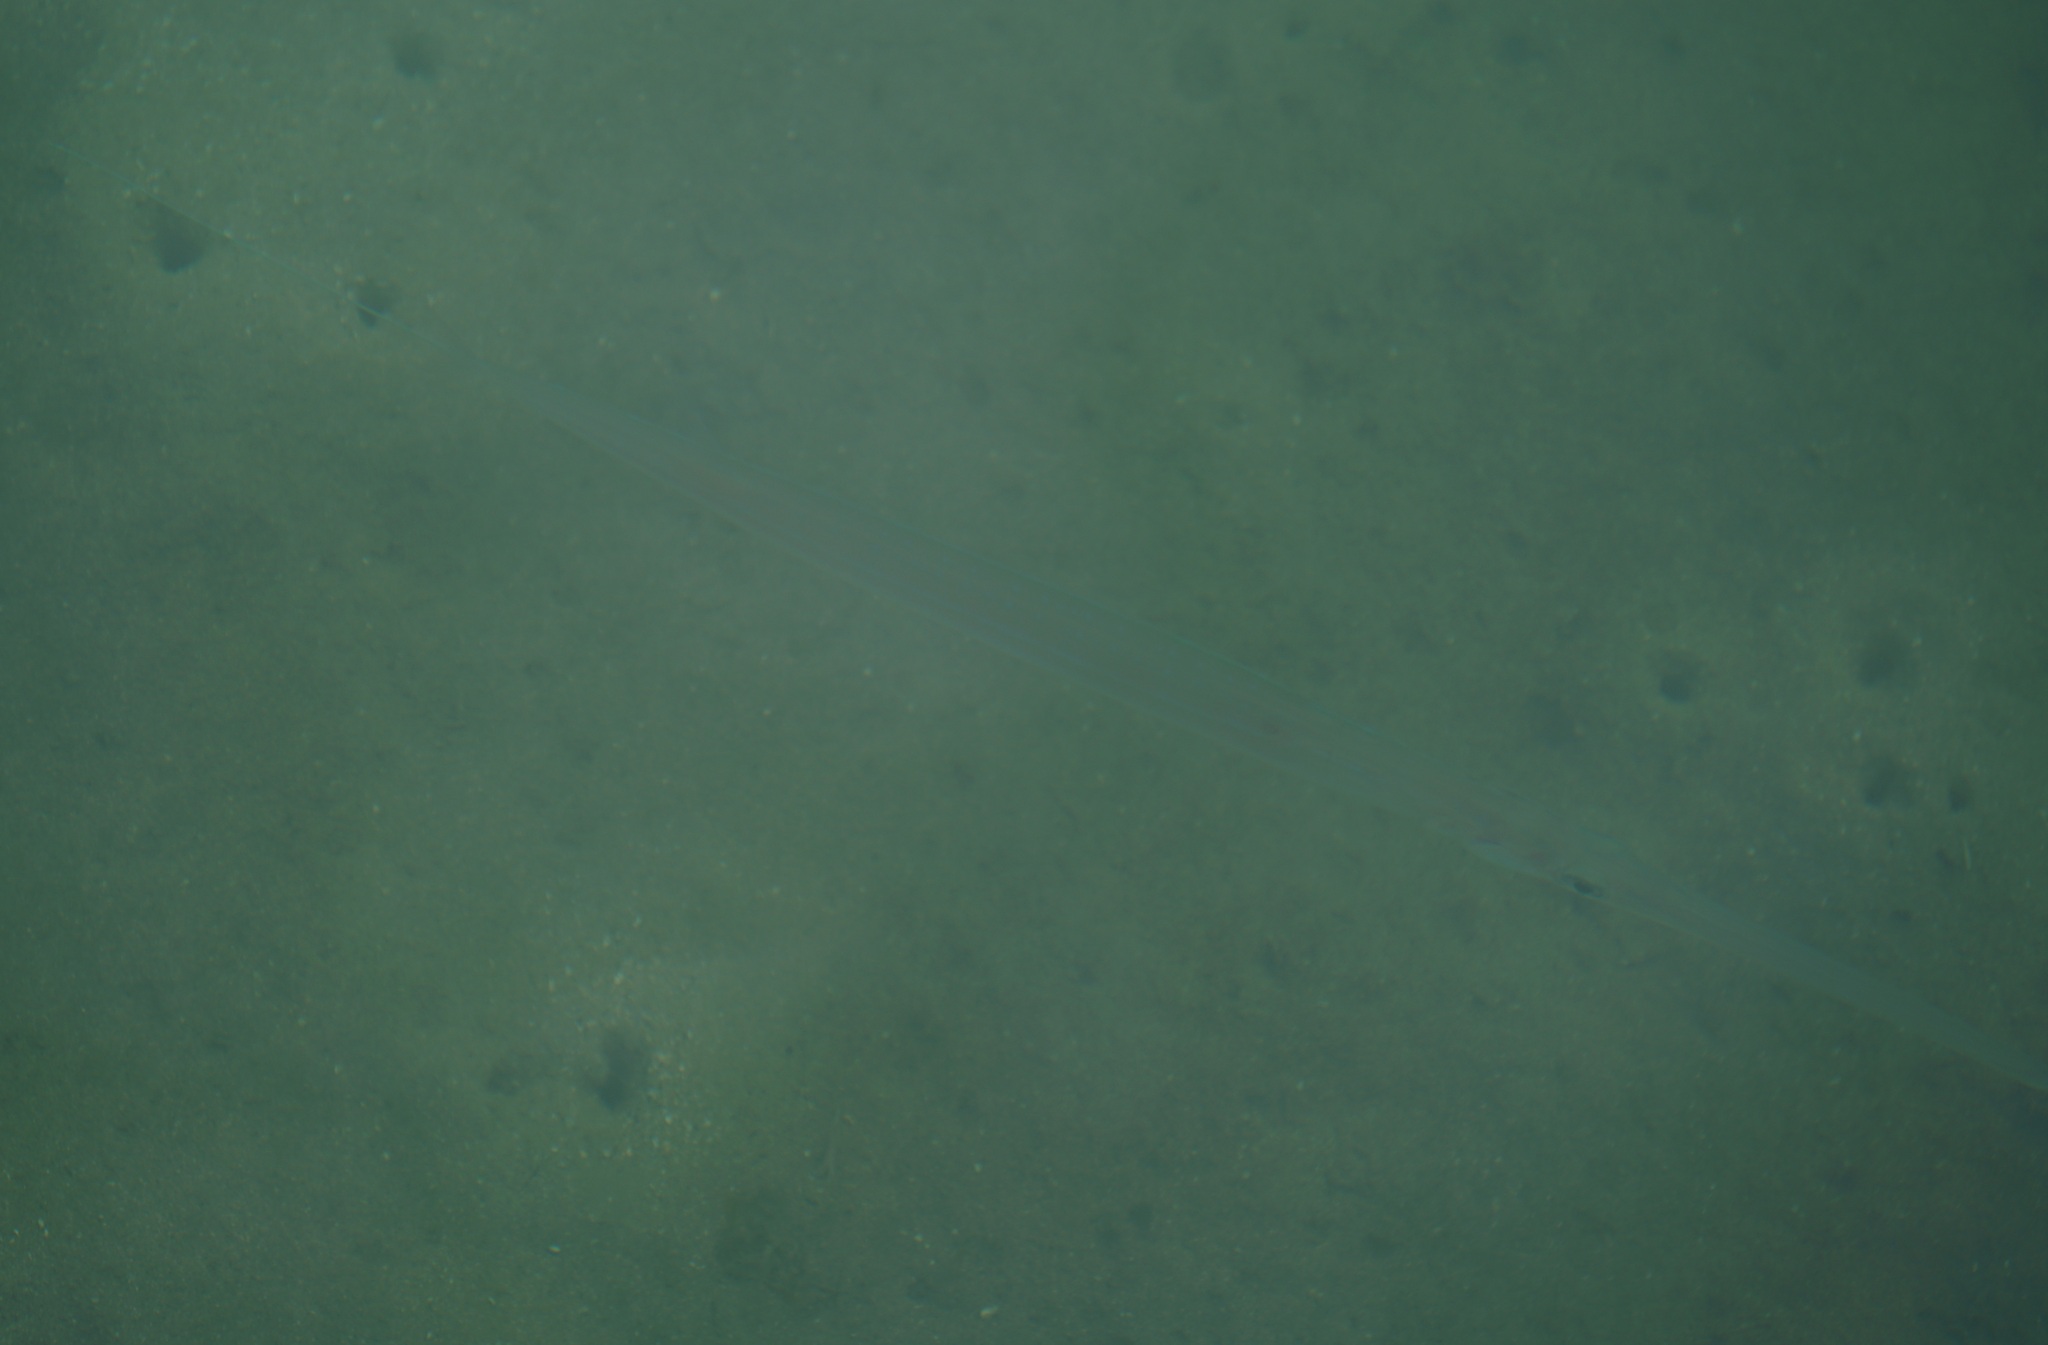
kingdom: Animalia
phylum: Chordata
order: Syngnathiformes
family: Fistulariidae
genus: Fistularia
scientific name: Fistularia commersonii
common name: Bluespotted cornetfish
